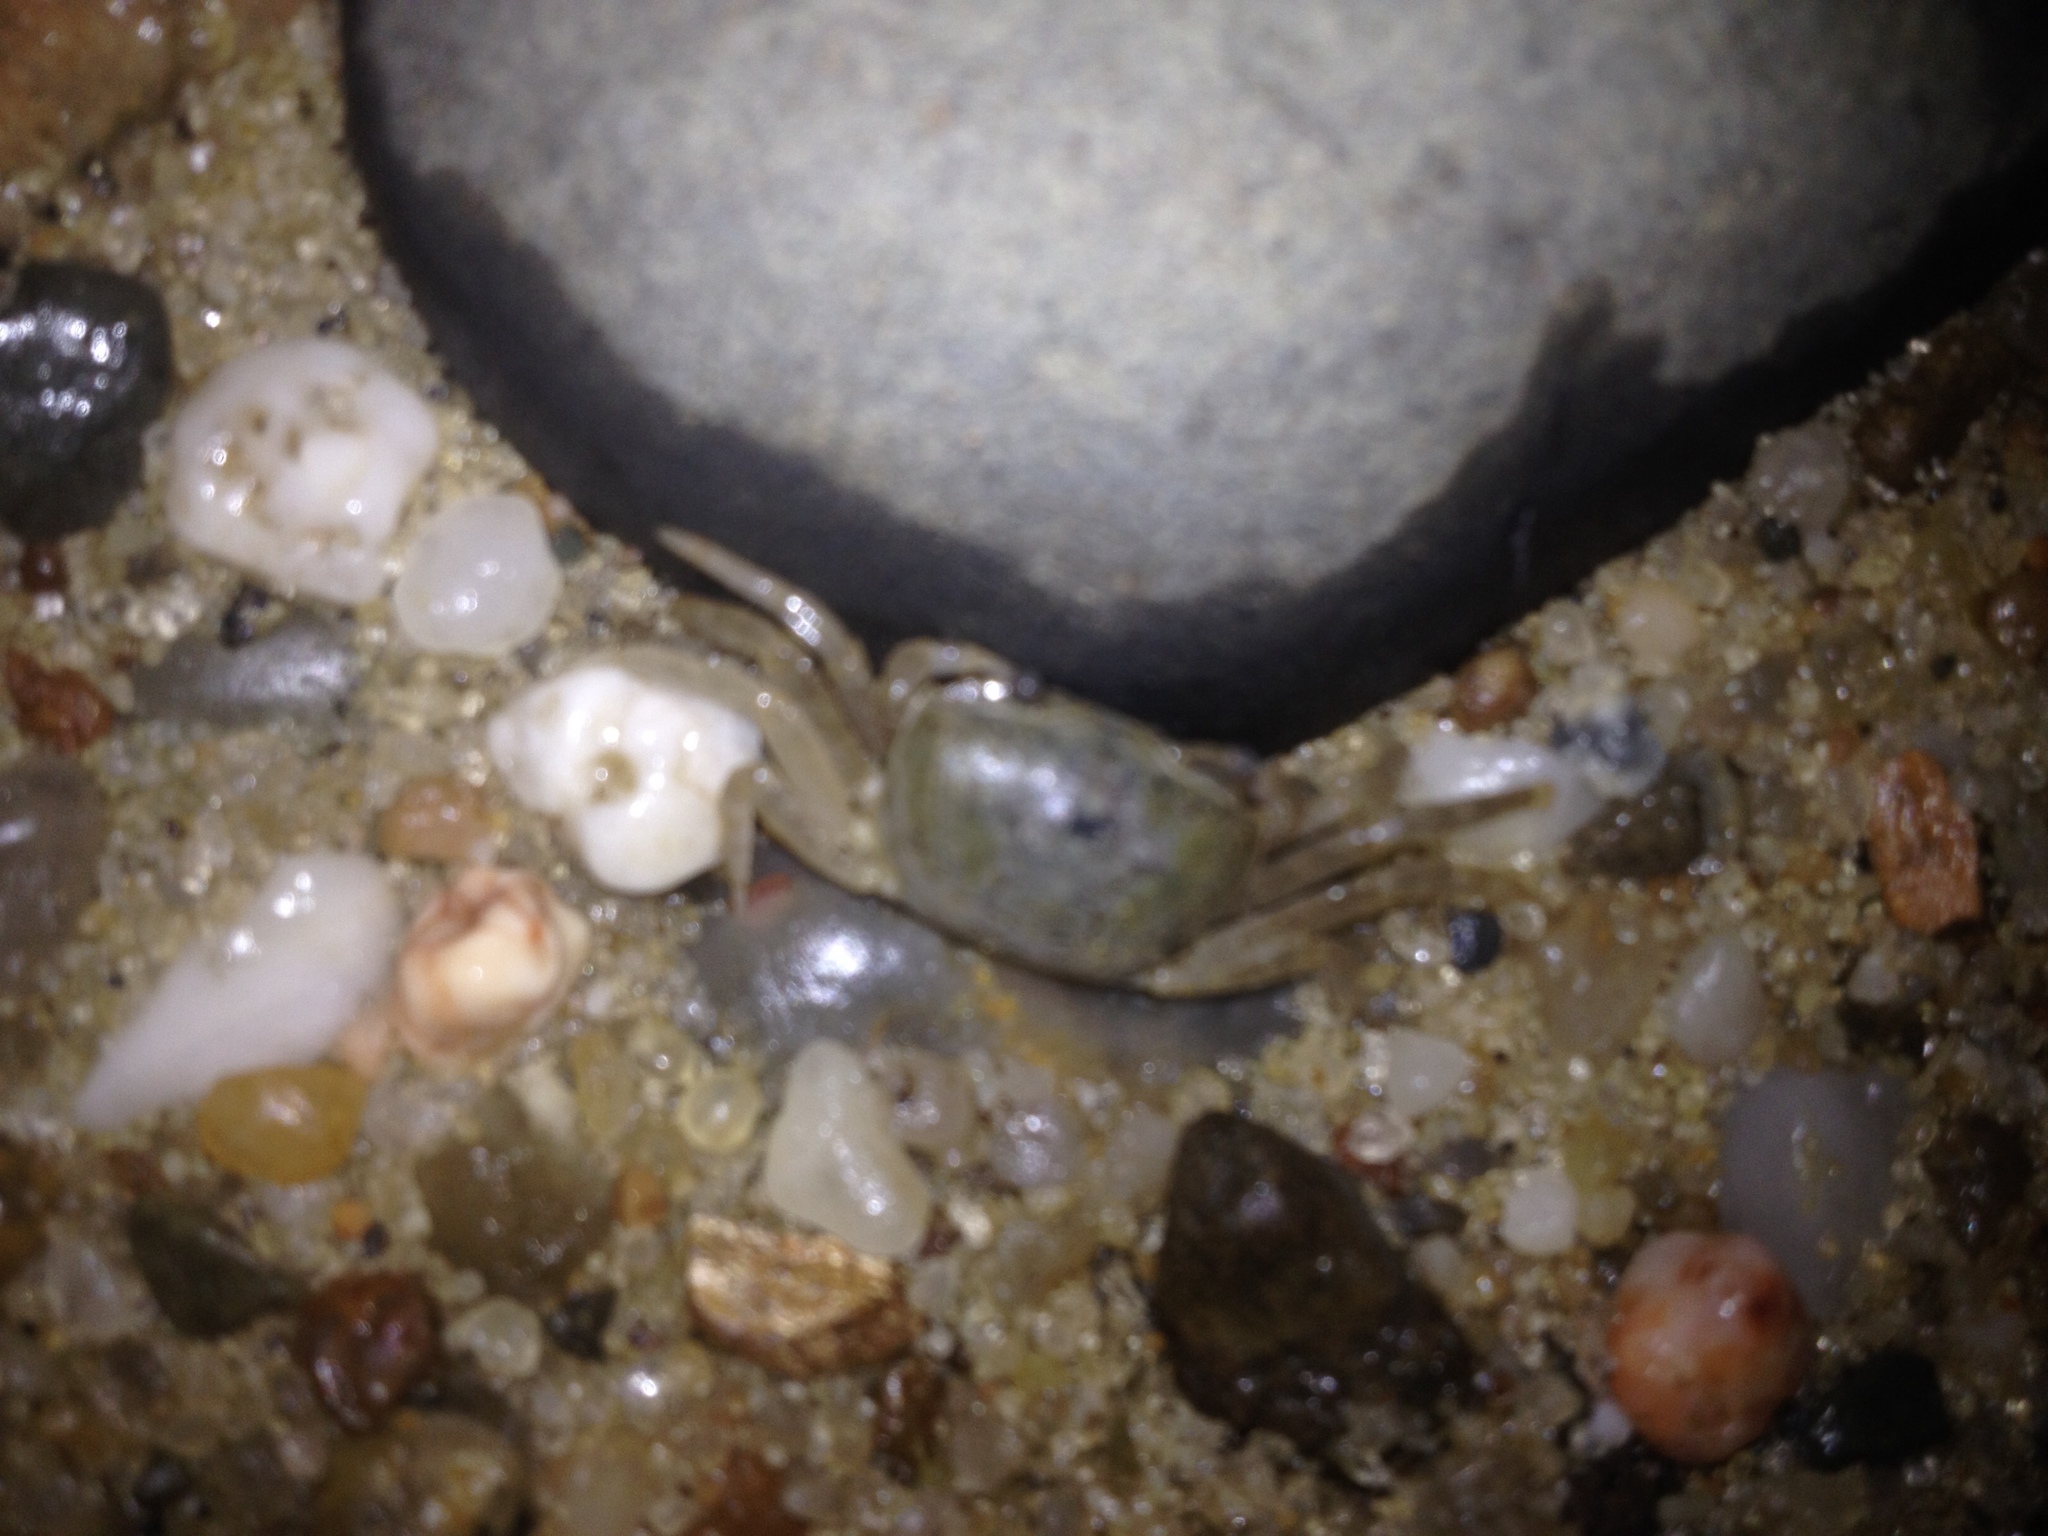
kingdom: Animalia
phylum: Arthropoda
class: Malacostraca
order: Decapoda
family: Ocypodidae
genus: Leptuca
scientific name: Leptuca pugilator
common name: Atlantic sand fiddler crab
